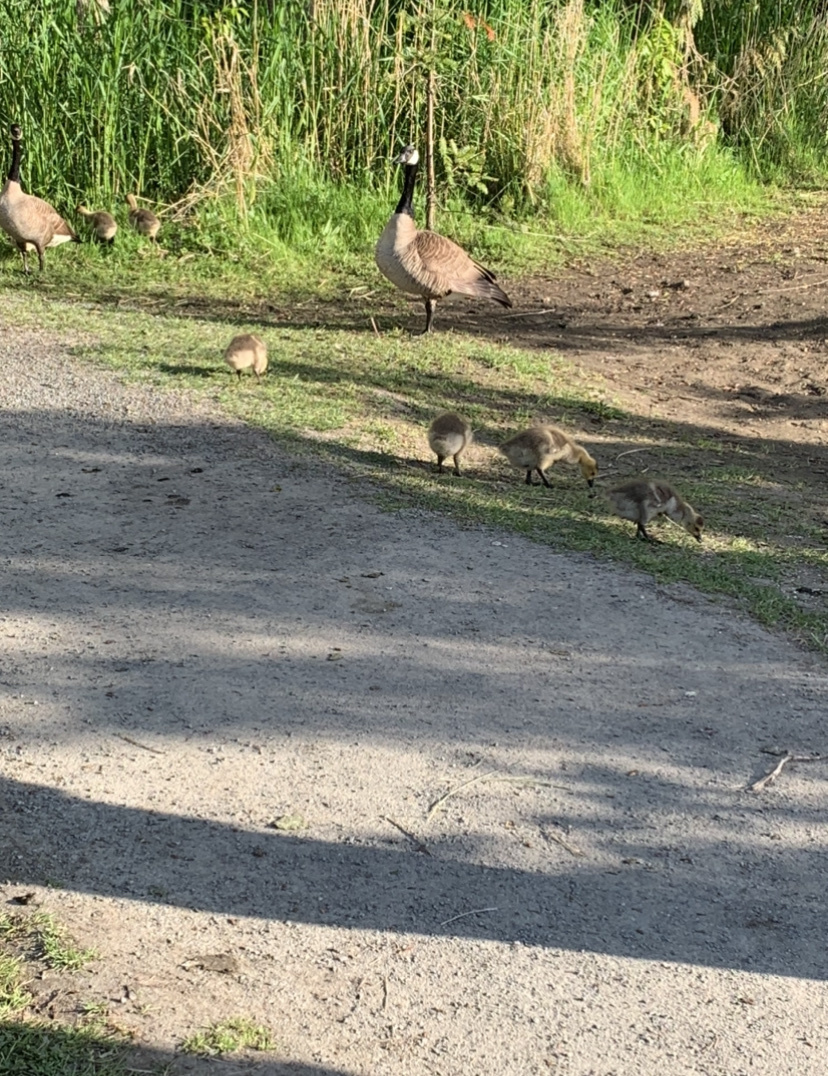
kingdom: Animalia
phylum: Chordata
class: Aves
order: Anseriformes
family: Anatidae
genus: Branta
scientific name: Branta canadensis
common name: Canada goose
